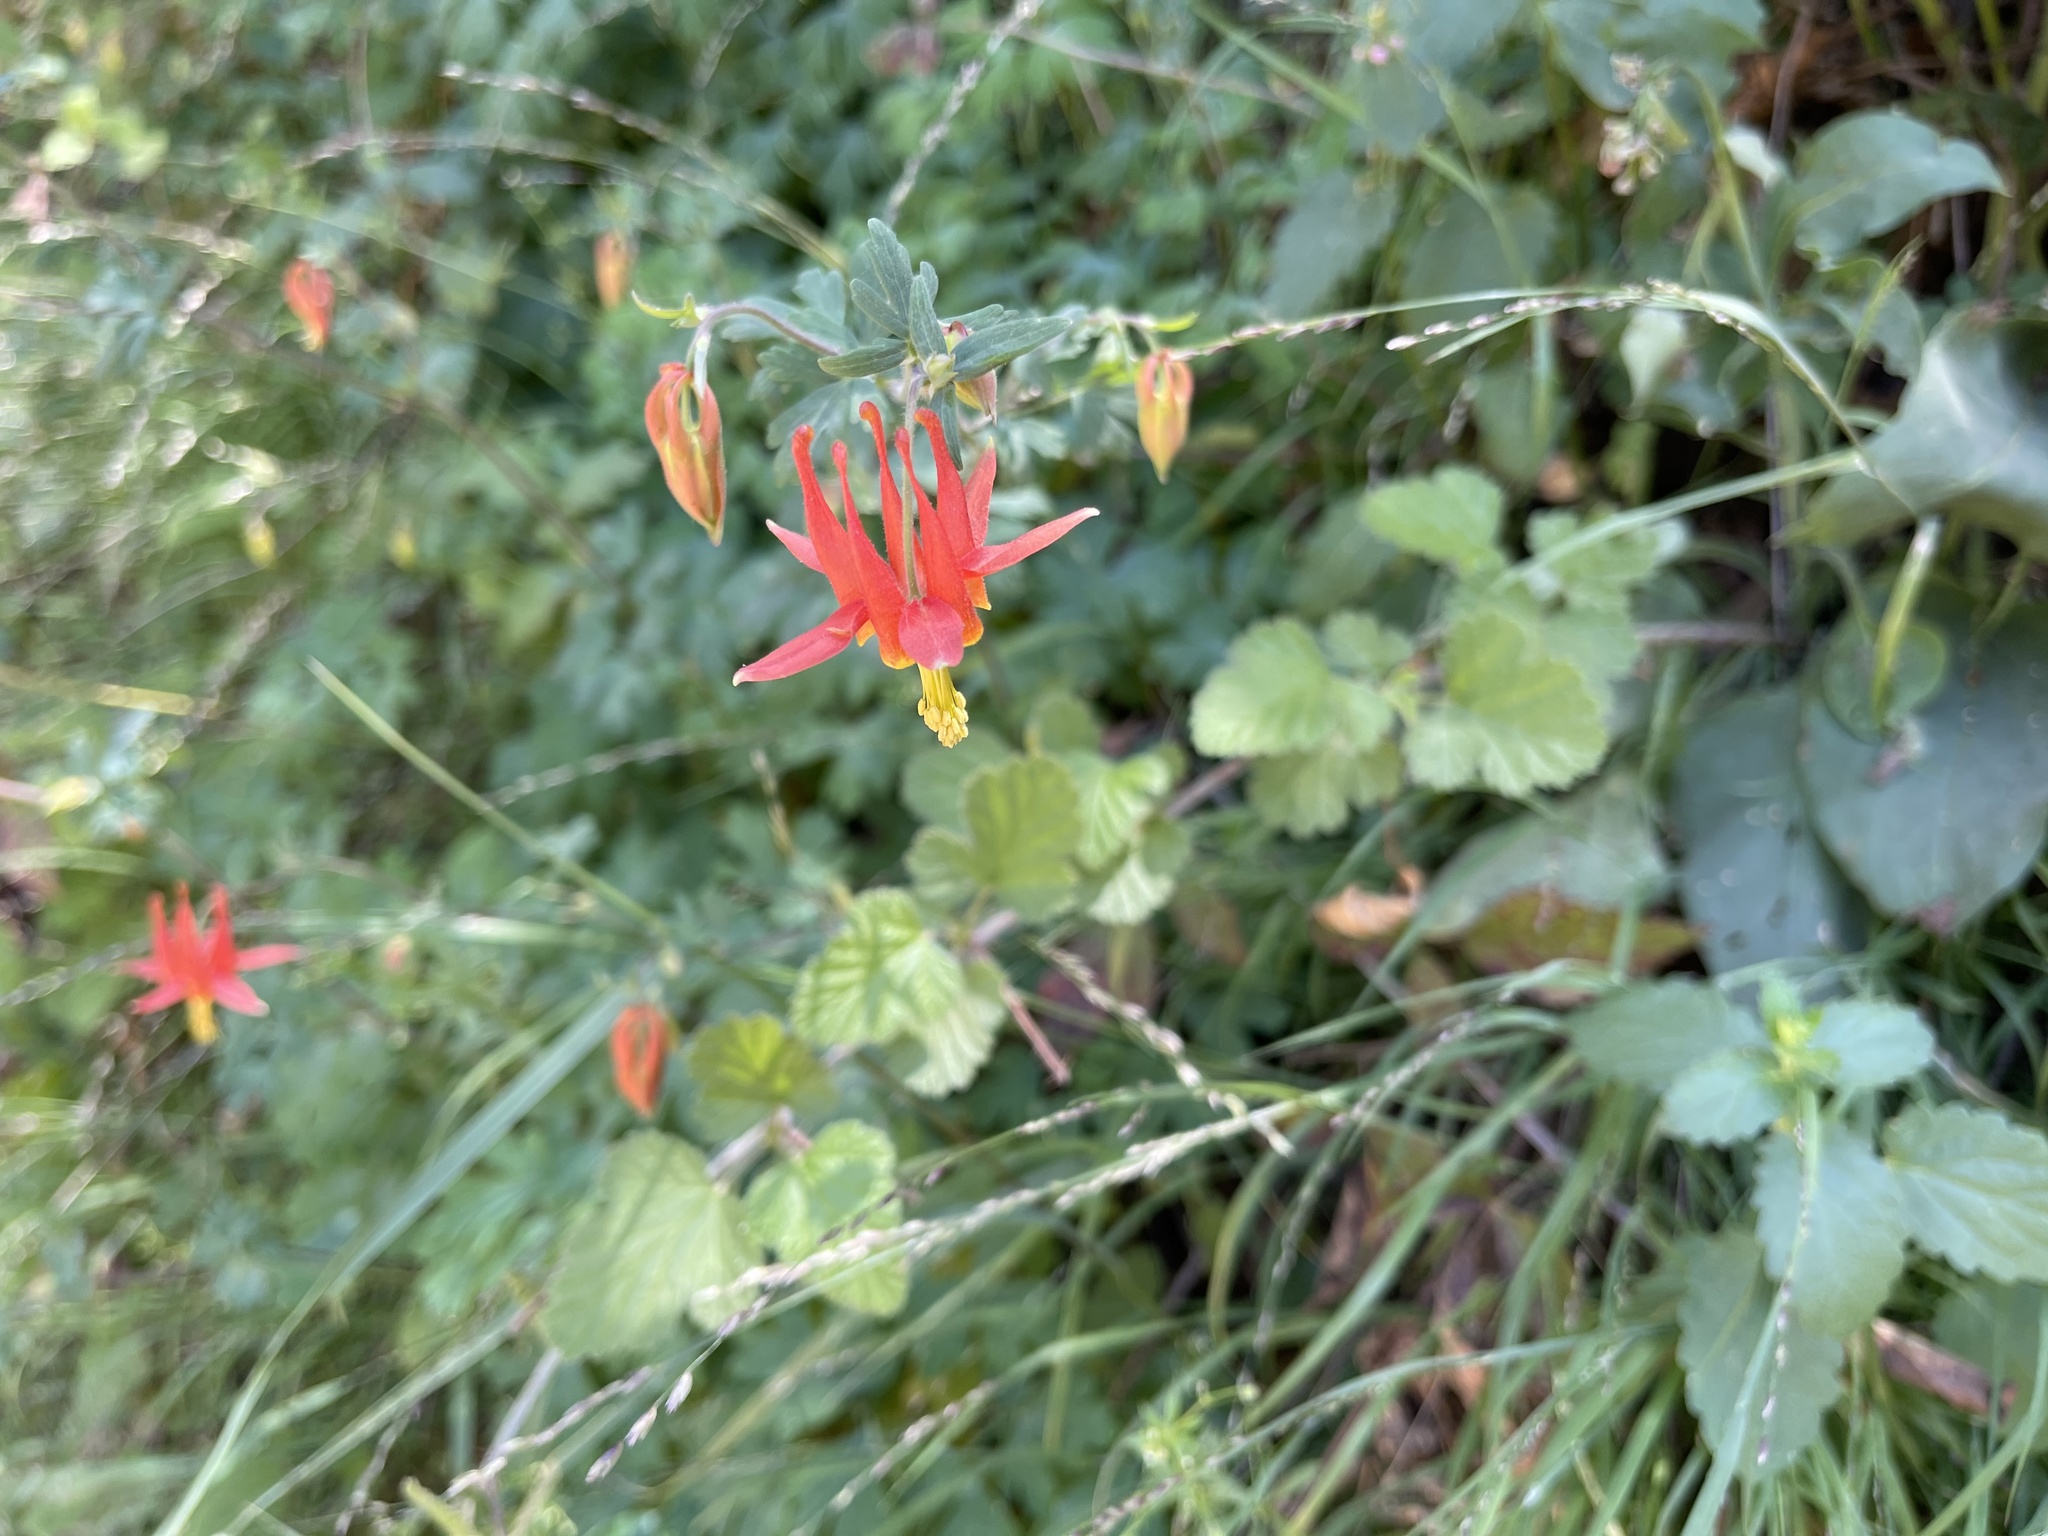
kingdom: Plantae
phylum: Tracheophyta
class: Magnoliopsida
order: Ranunculales
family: Ranunculaceae
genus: Aquilegia
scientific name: Aquilegia formosa
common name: Sitka columbine
